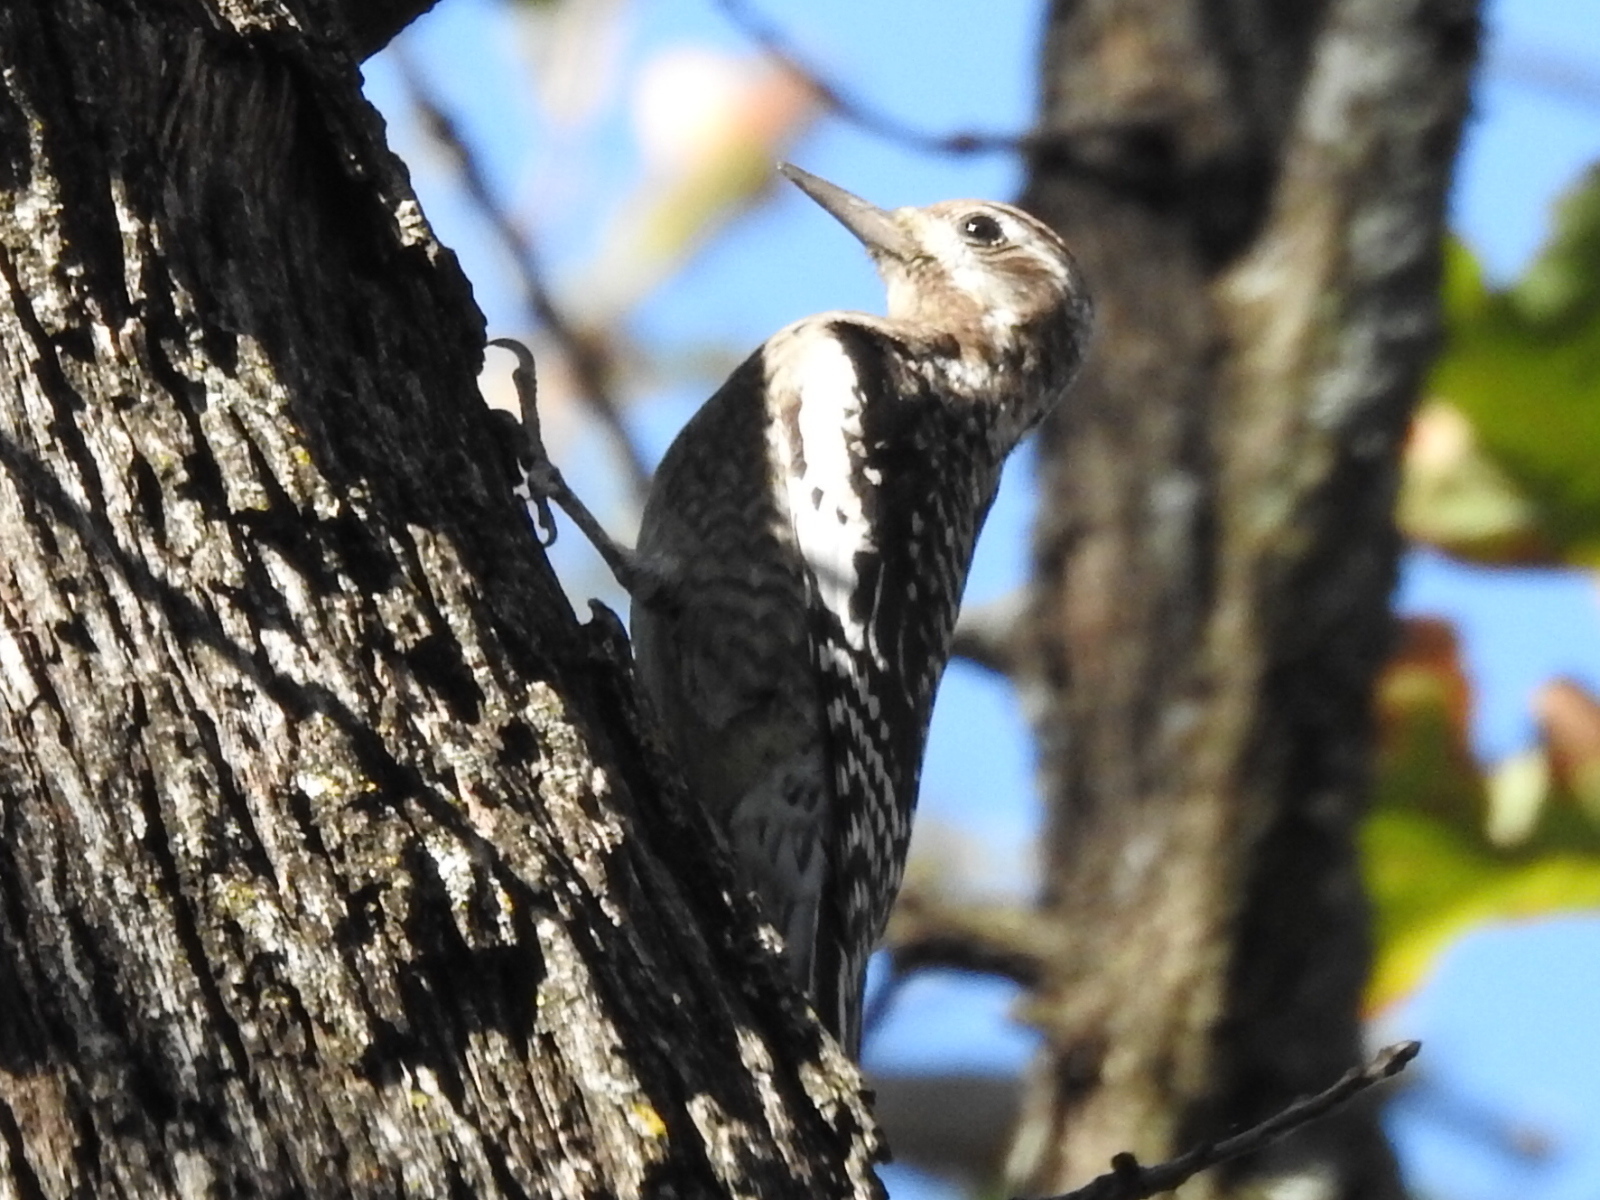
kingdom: Animalia
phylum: Chordata
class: Aves
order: Piciformes
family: Picidae
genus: Sphyrapicus
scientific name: Sphyrapicus varius
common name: Yellow-bellied sapsucker
